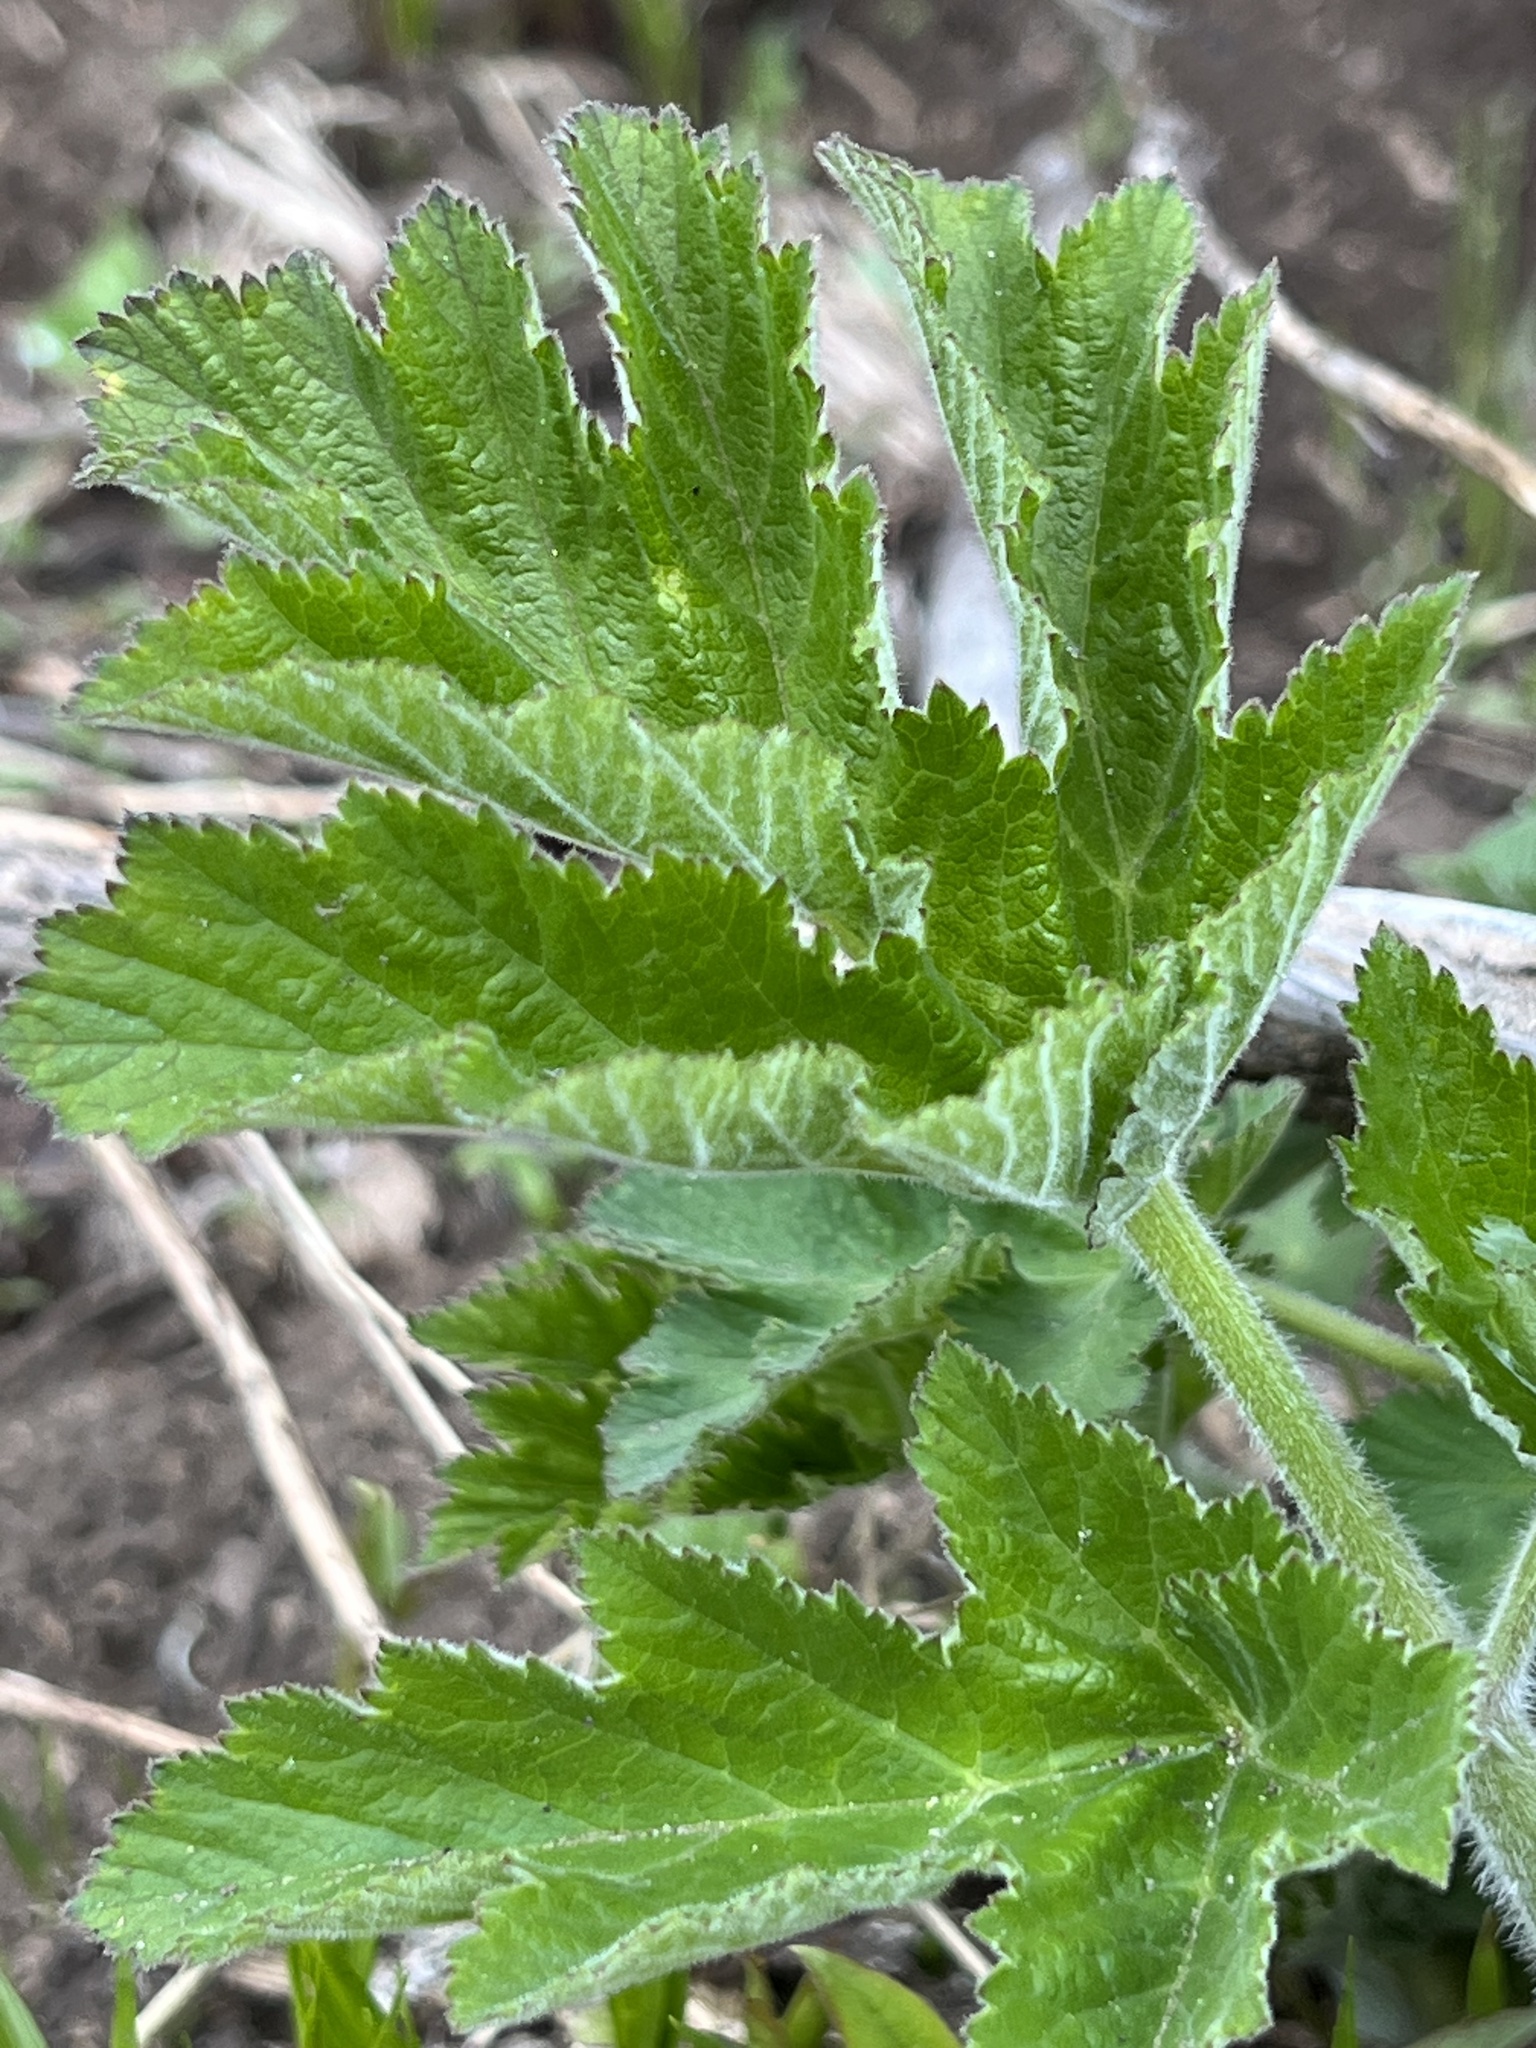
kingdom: Plantae
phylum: Tracheophyta
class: Magnoliopsida
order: Apiales
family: Apiaceae
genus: Heracleum
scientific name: Heracleum maximum
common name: American cow parsnip
